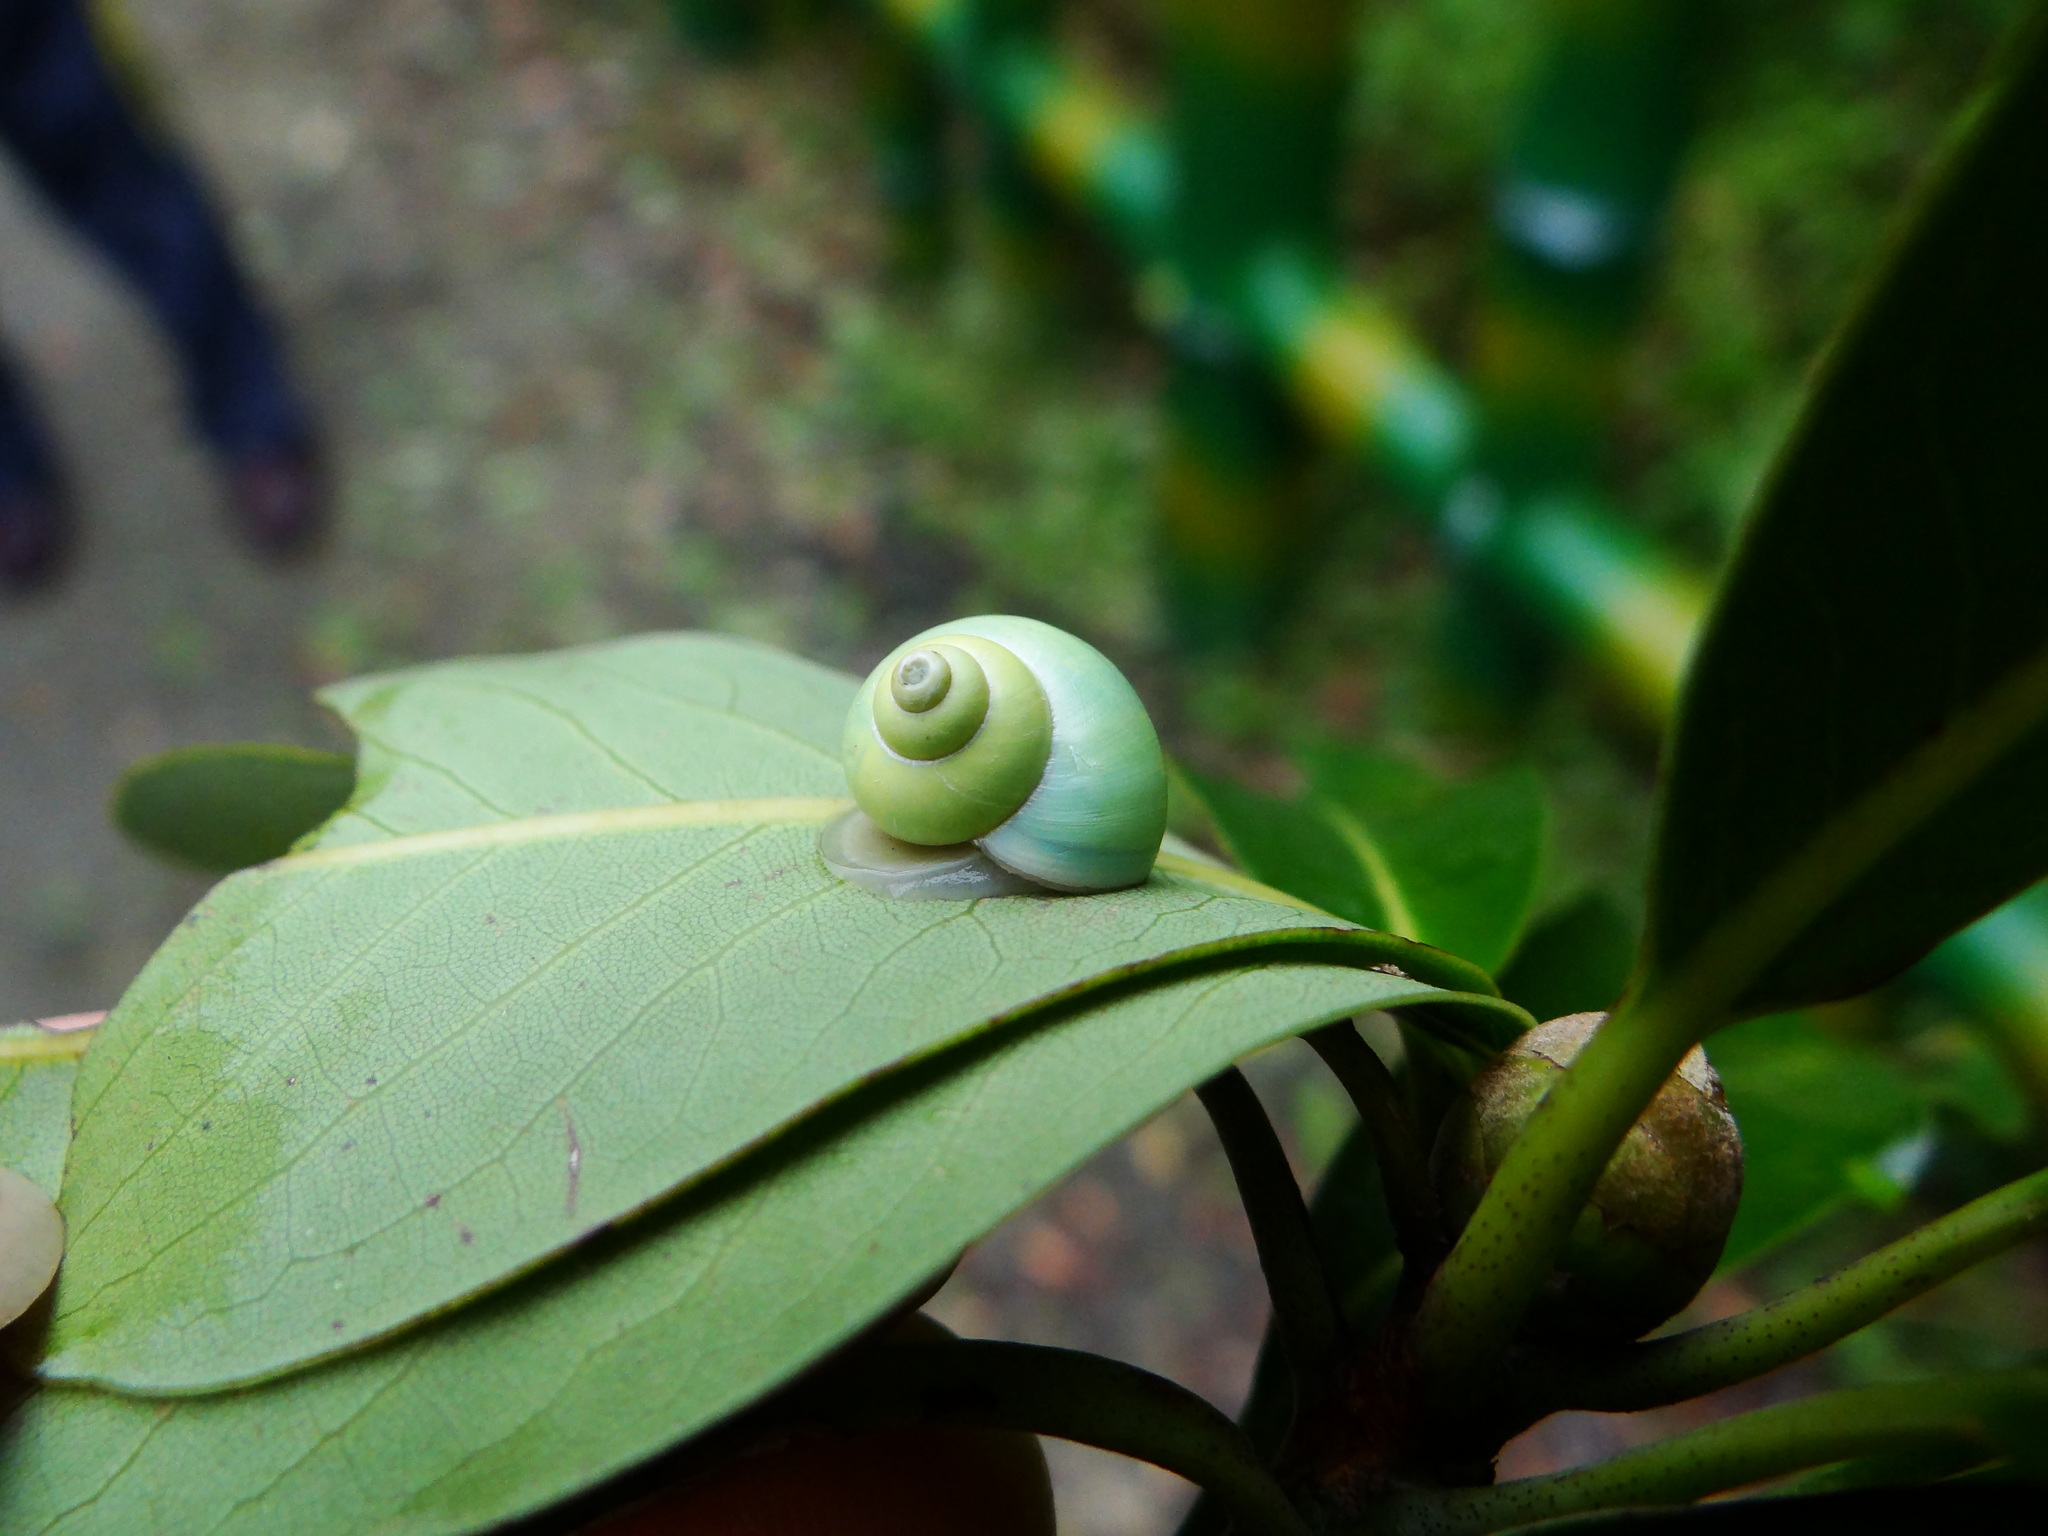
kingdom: Animalia
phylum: Mollusca
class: Gastropoda
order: Architaenioglossa
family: Cyclophoridae
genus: Leptopoma
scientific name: Leptopoma nitidum
